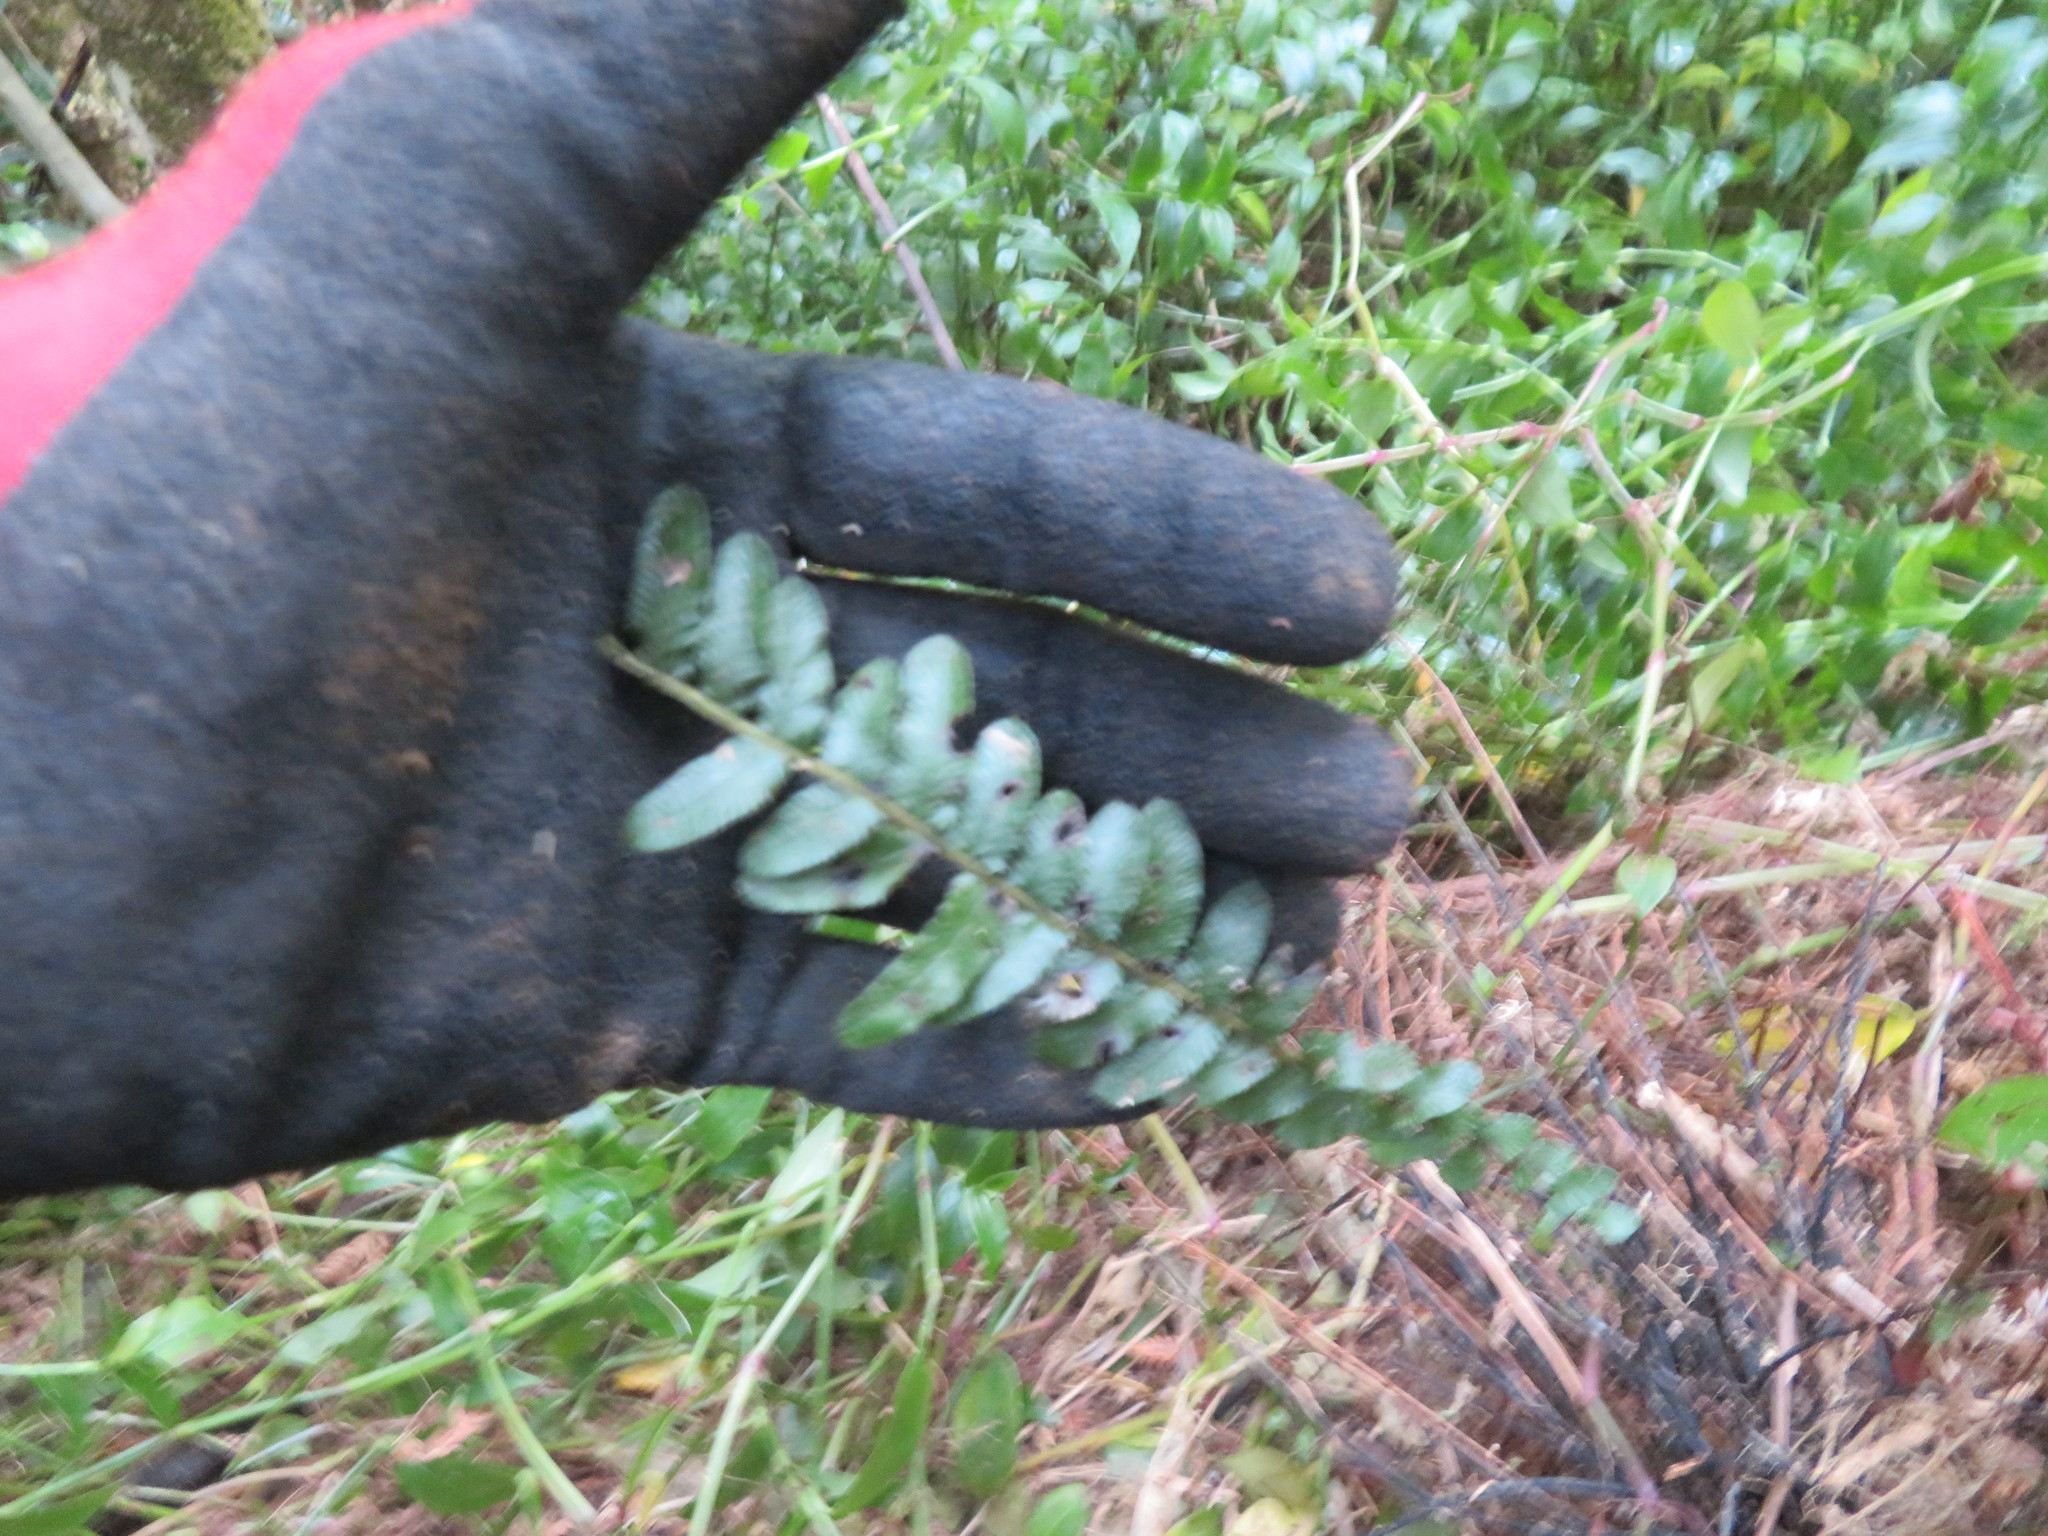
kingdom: Plantae
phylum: Tracheophyta
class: Polypodiopsida
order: Polypodiales
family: Blechnaceae
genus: Doodia
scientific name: Doodia australis
